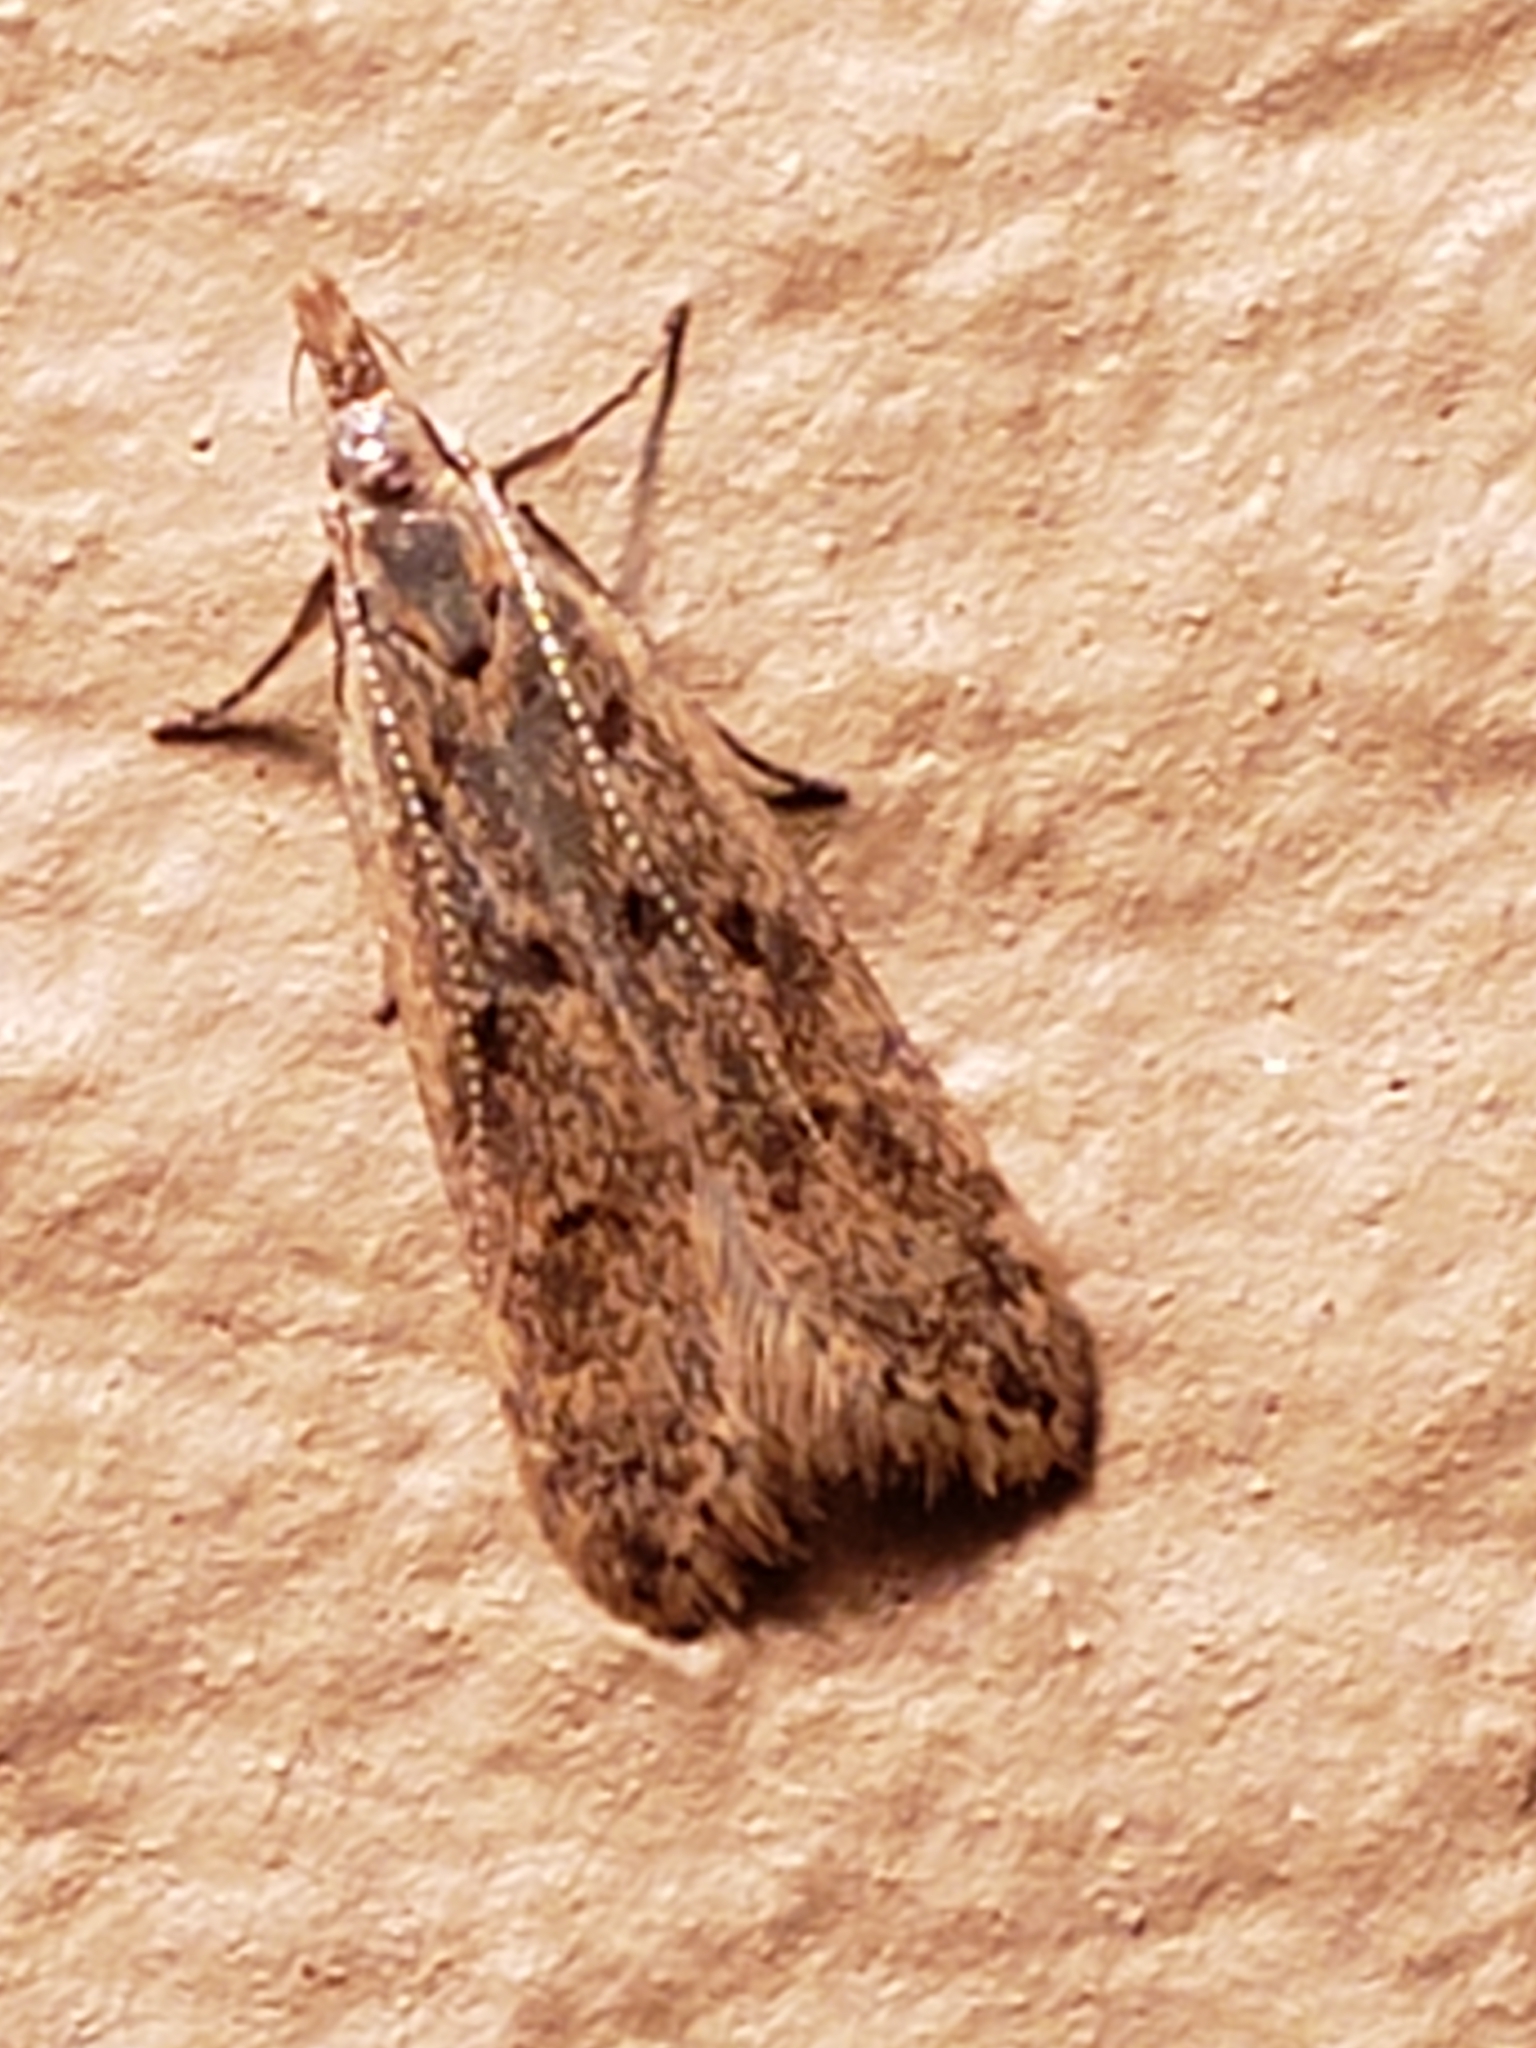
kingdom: Animalia
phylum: Arthropoda
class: Insecta
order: Lepidoptera
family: Gelechiidae
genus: Dichomeris
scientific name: Dichomeris punctipennella
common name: Many-spotted dichomeris moth
